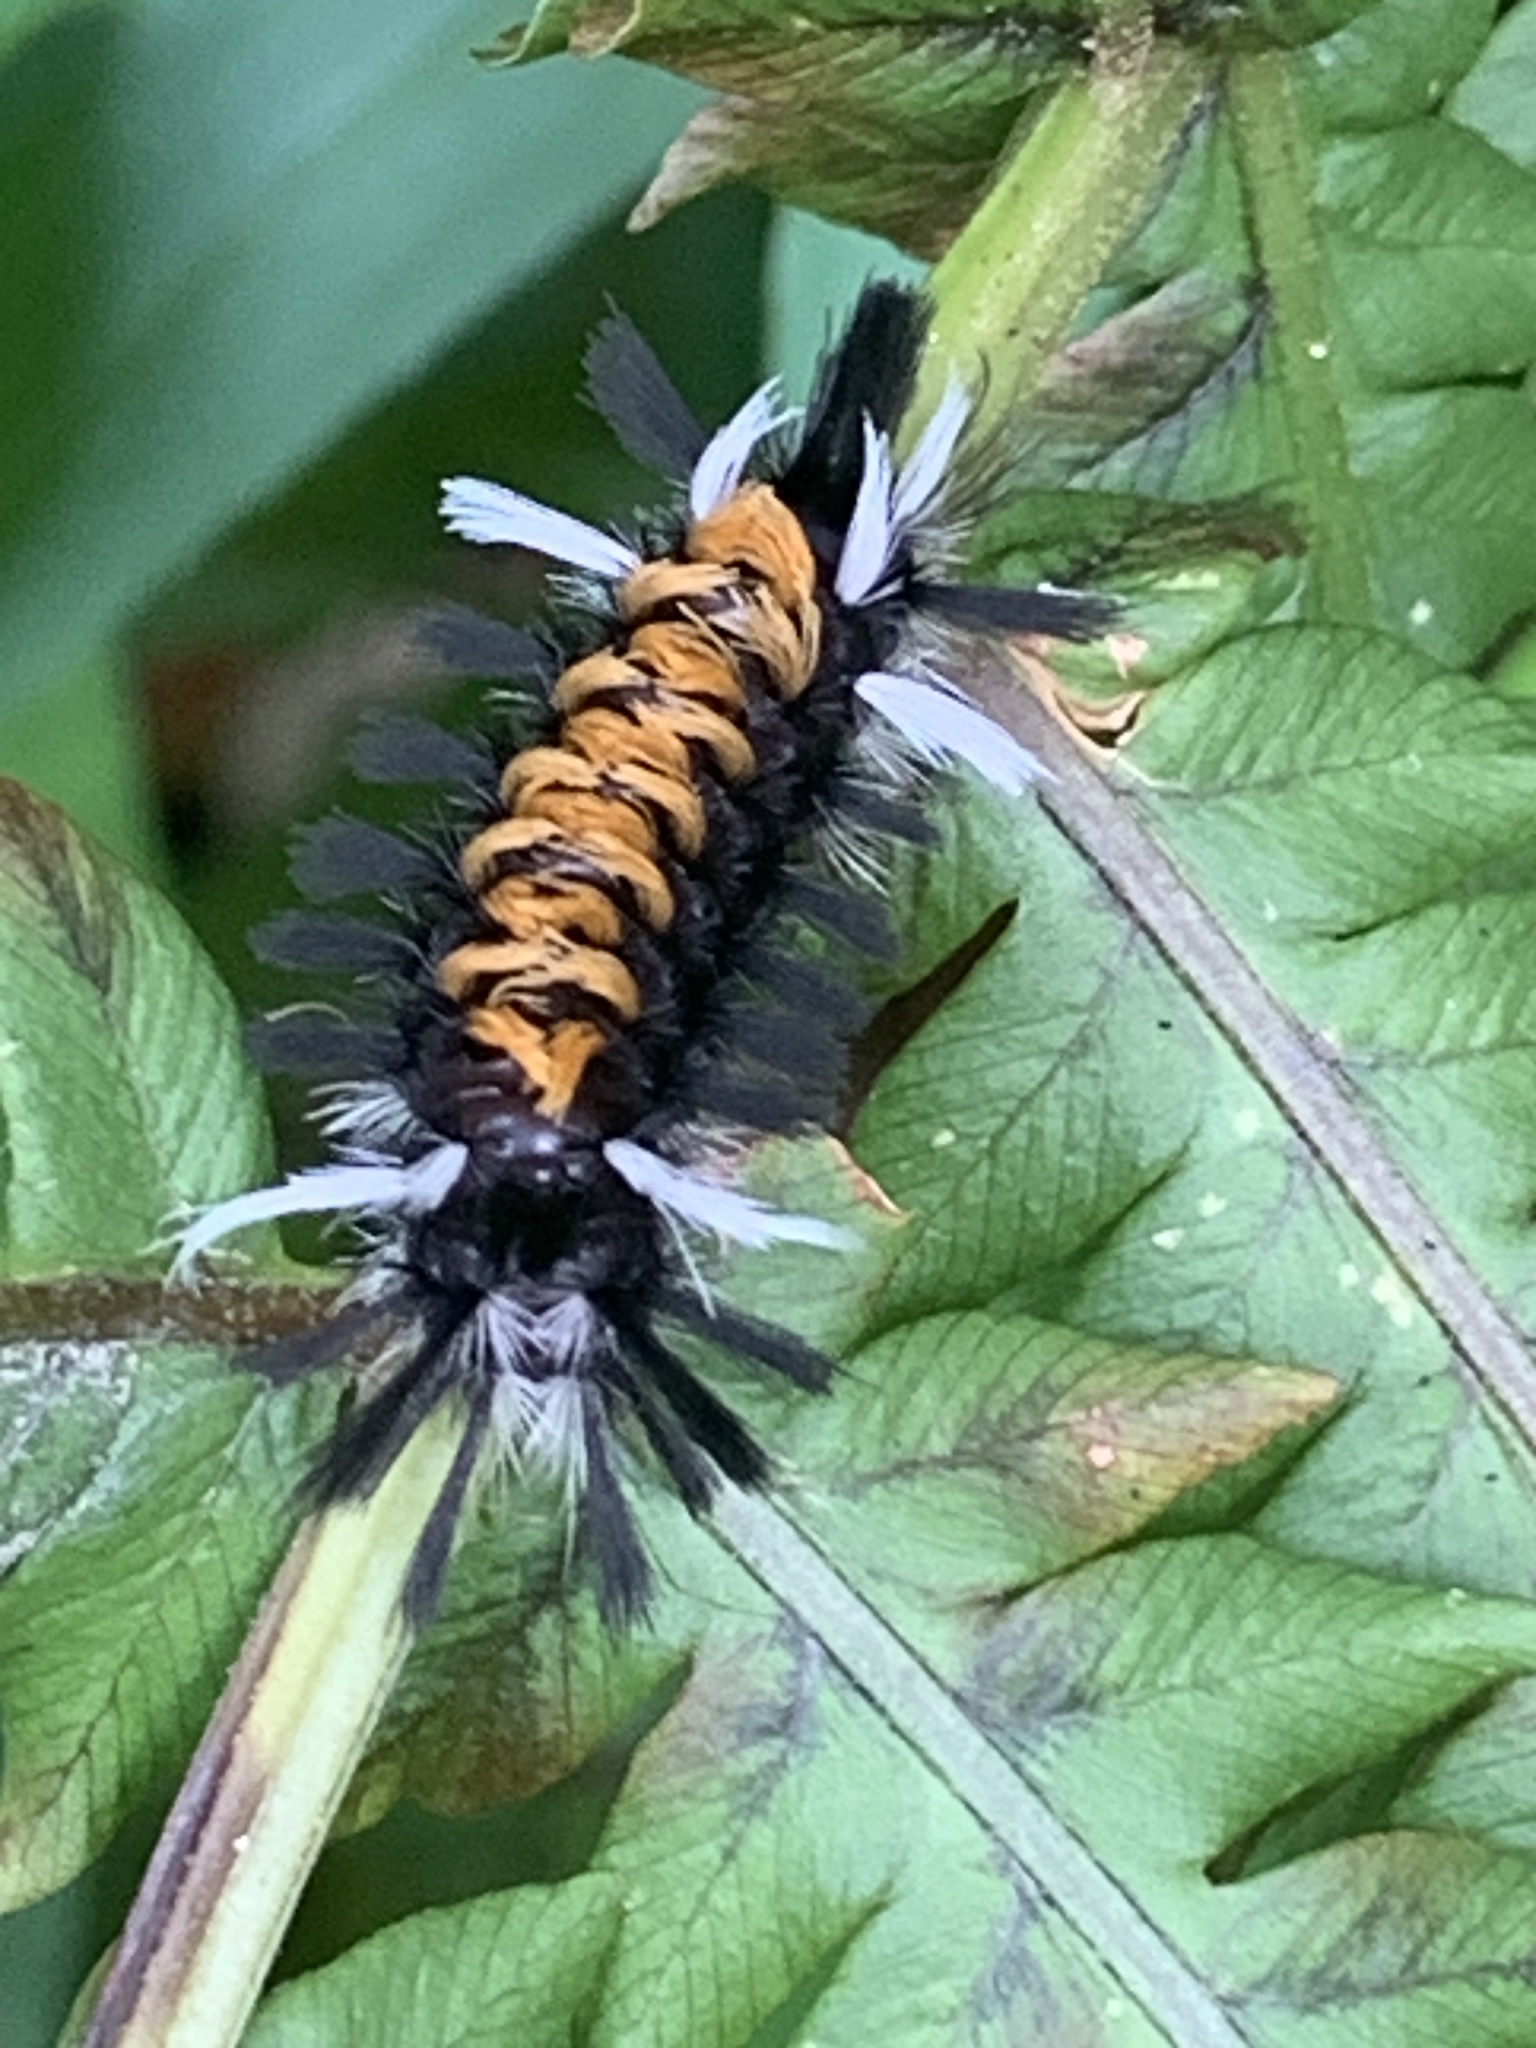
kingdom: Animalia
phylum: Arthropoda
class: Insecta
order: Lepidoptera
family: Erebidae
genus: Euchaetes
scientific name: Euchaetes egle
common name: Milkweed tussock moth
